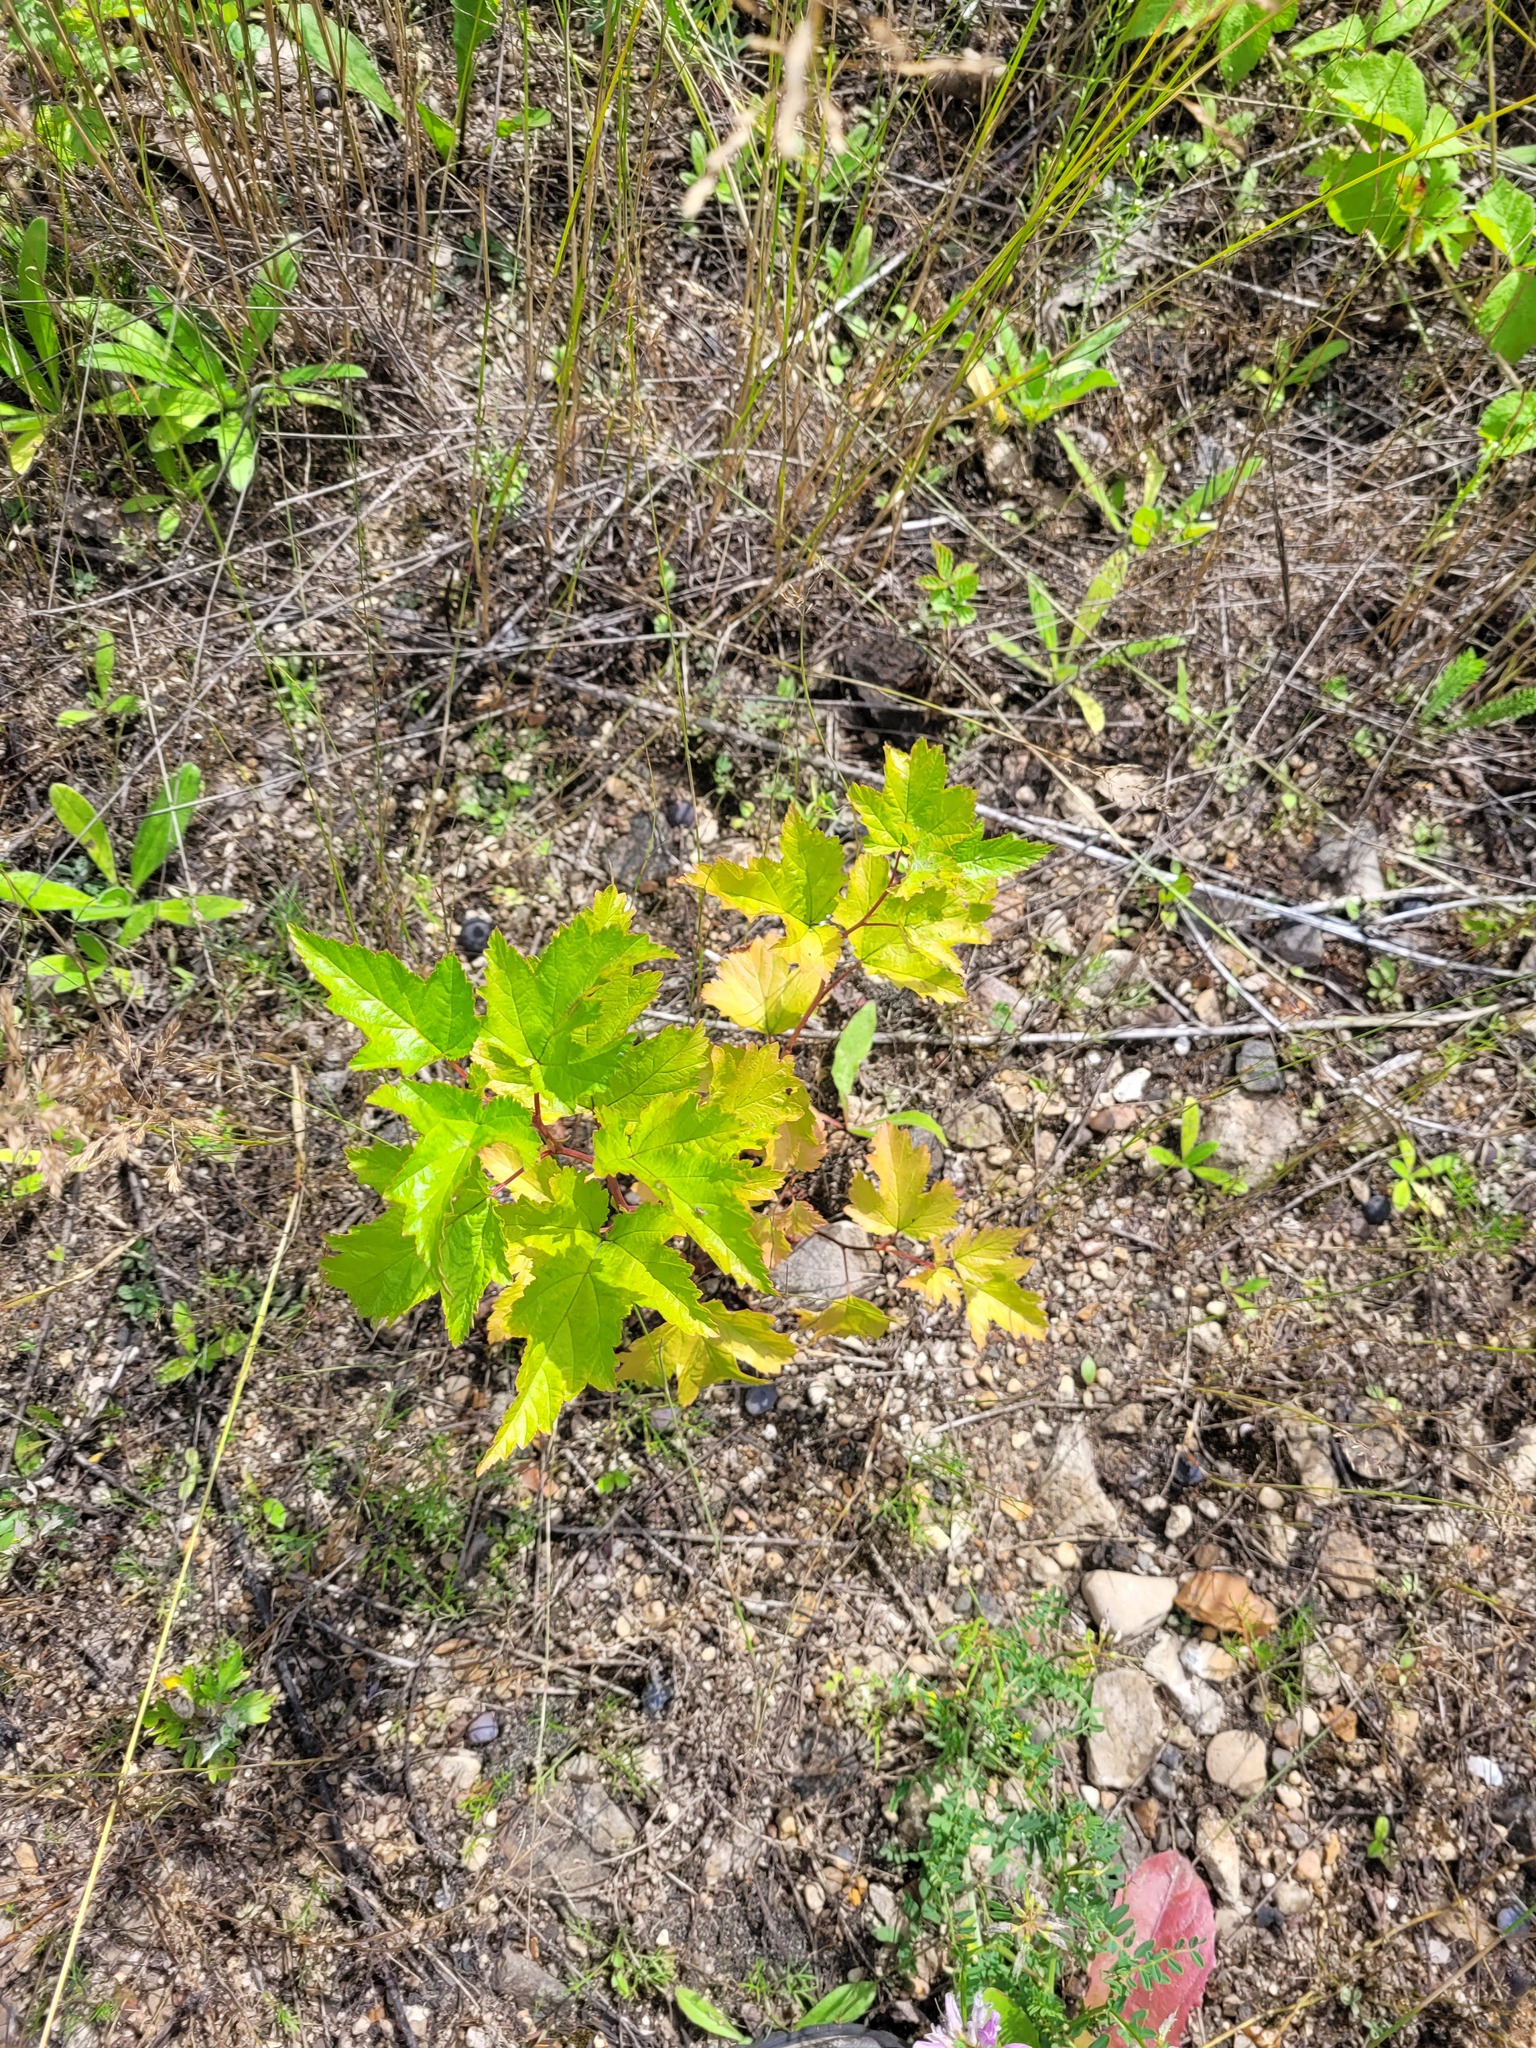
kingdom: Plantae
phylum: Tracheophyta
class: Magnoliopsida
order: Rosales
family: Rosaceae
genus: Physocarpus
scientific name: Physocarpus opulifolius
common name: Ninebark
